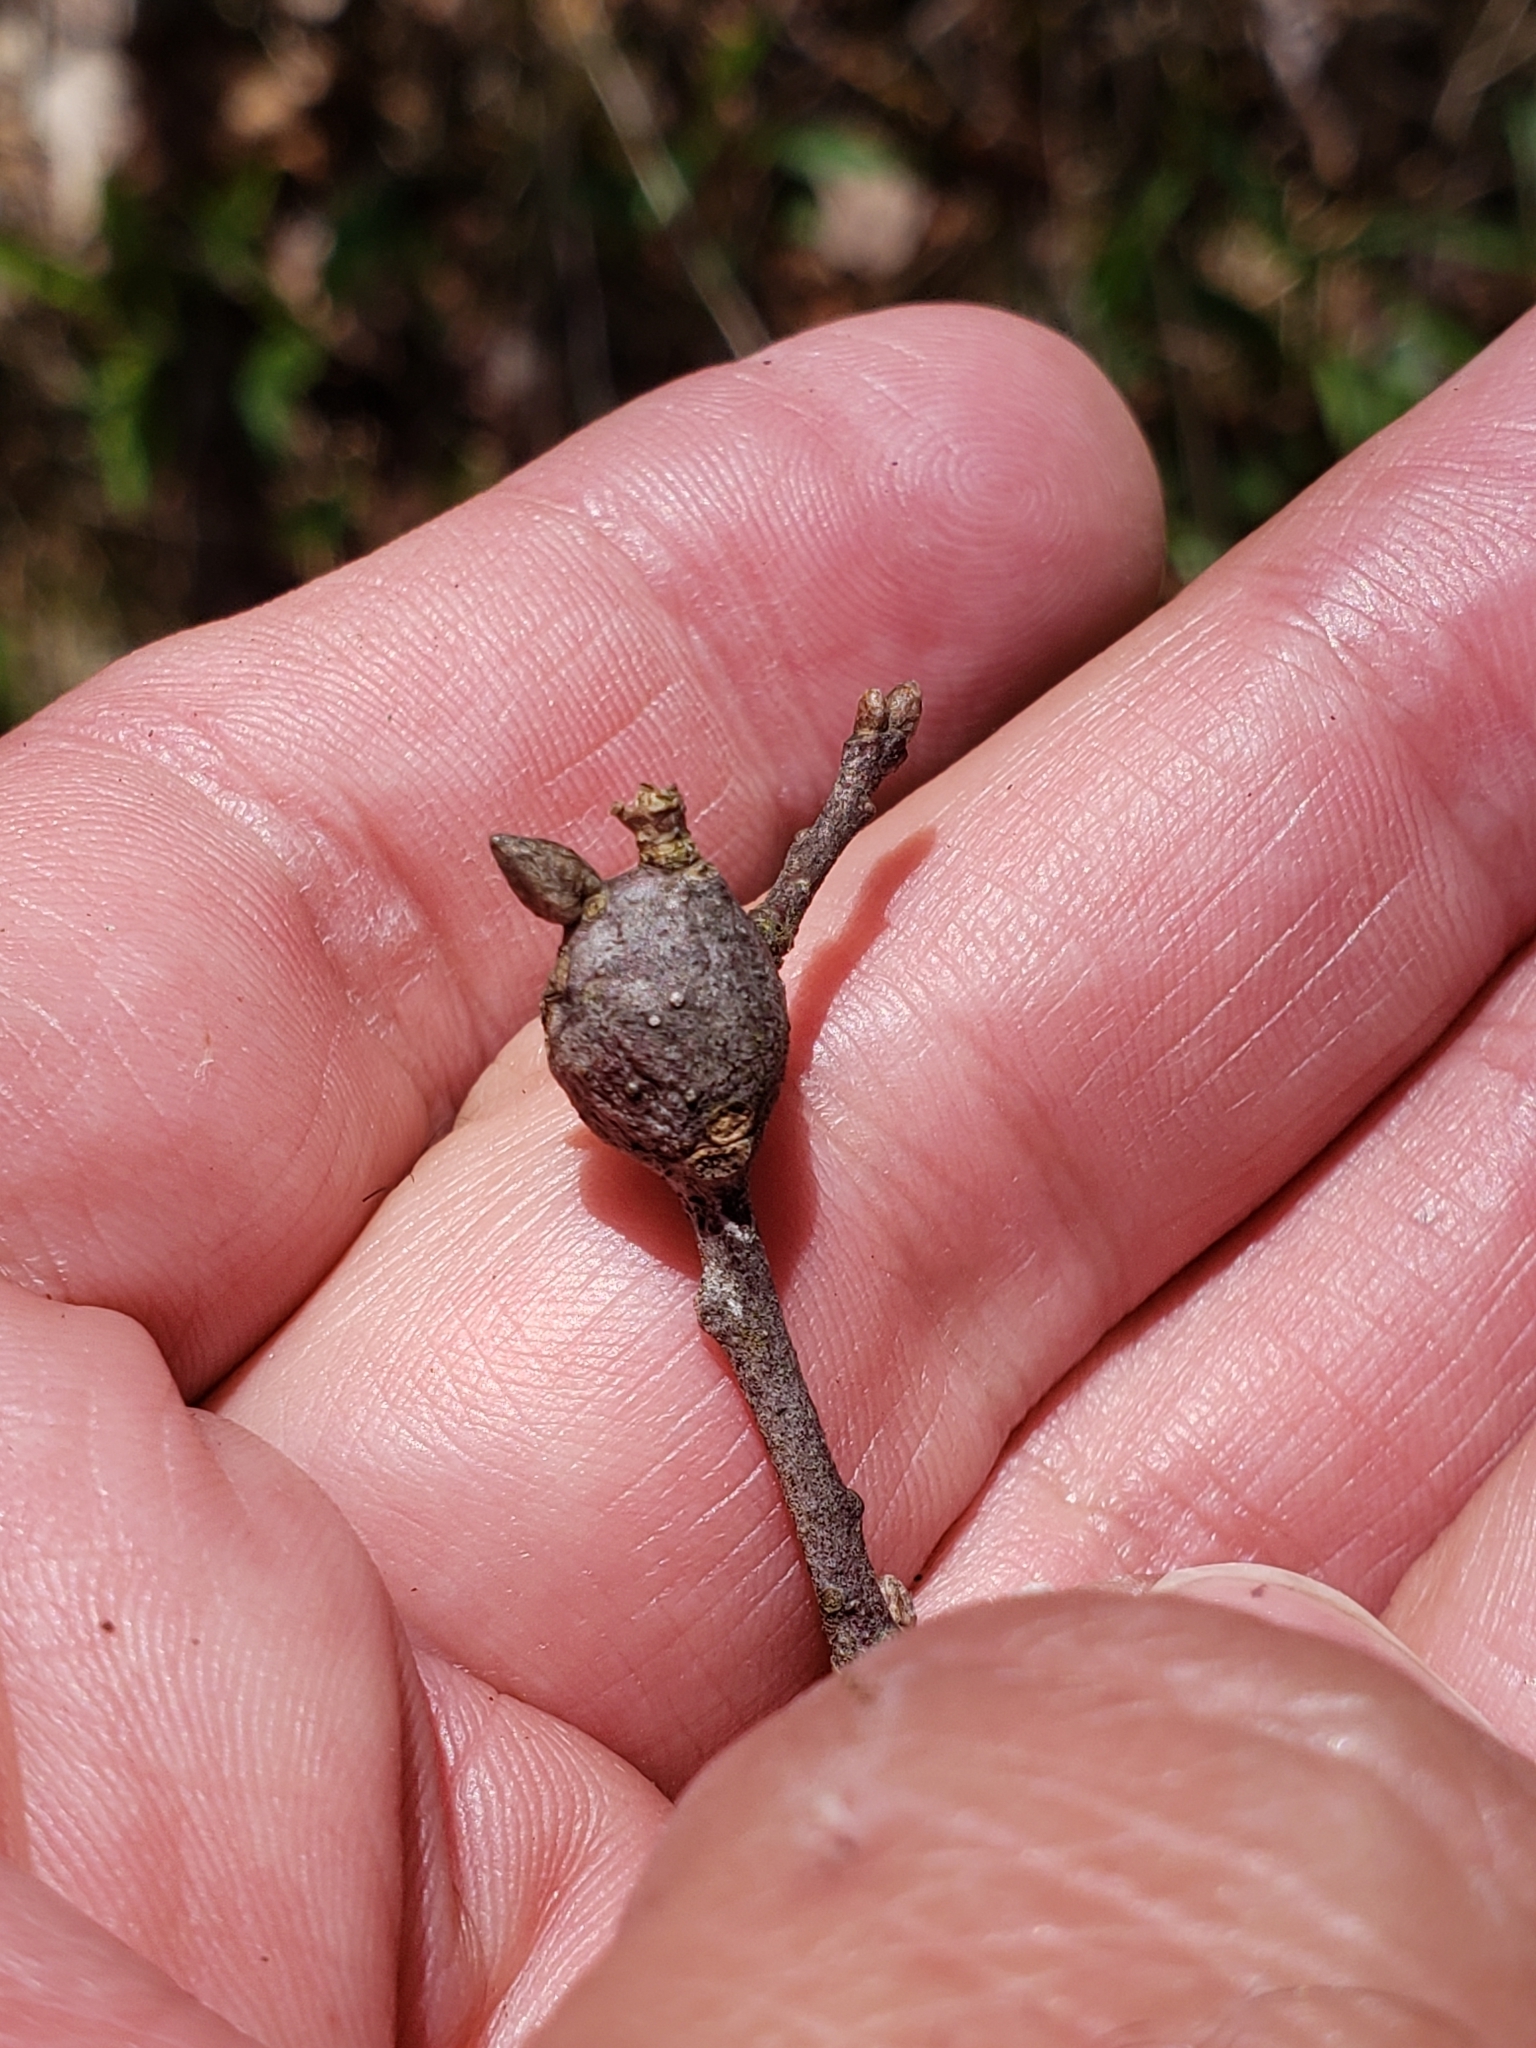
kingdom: Animalia
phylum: Arthropoda
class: Insecta
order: Hymenoptera
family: Cynipidae
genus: Zapatella
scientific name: Zapatella quercusphellos
